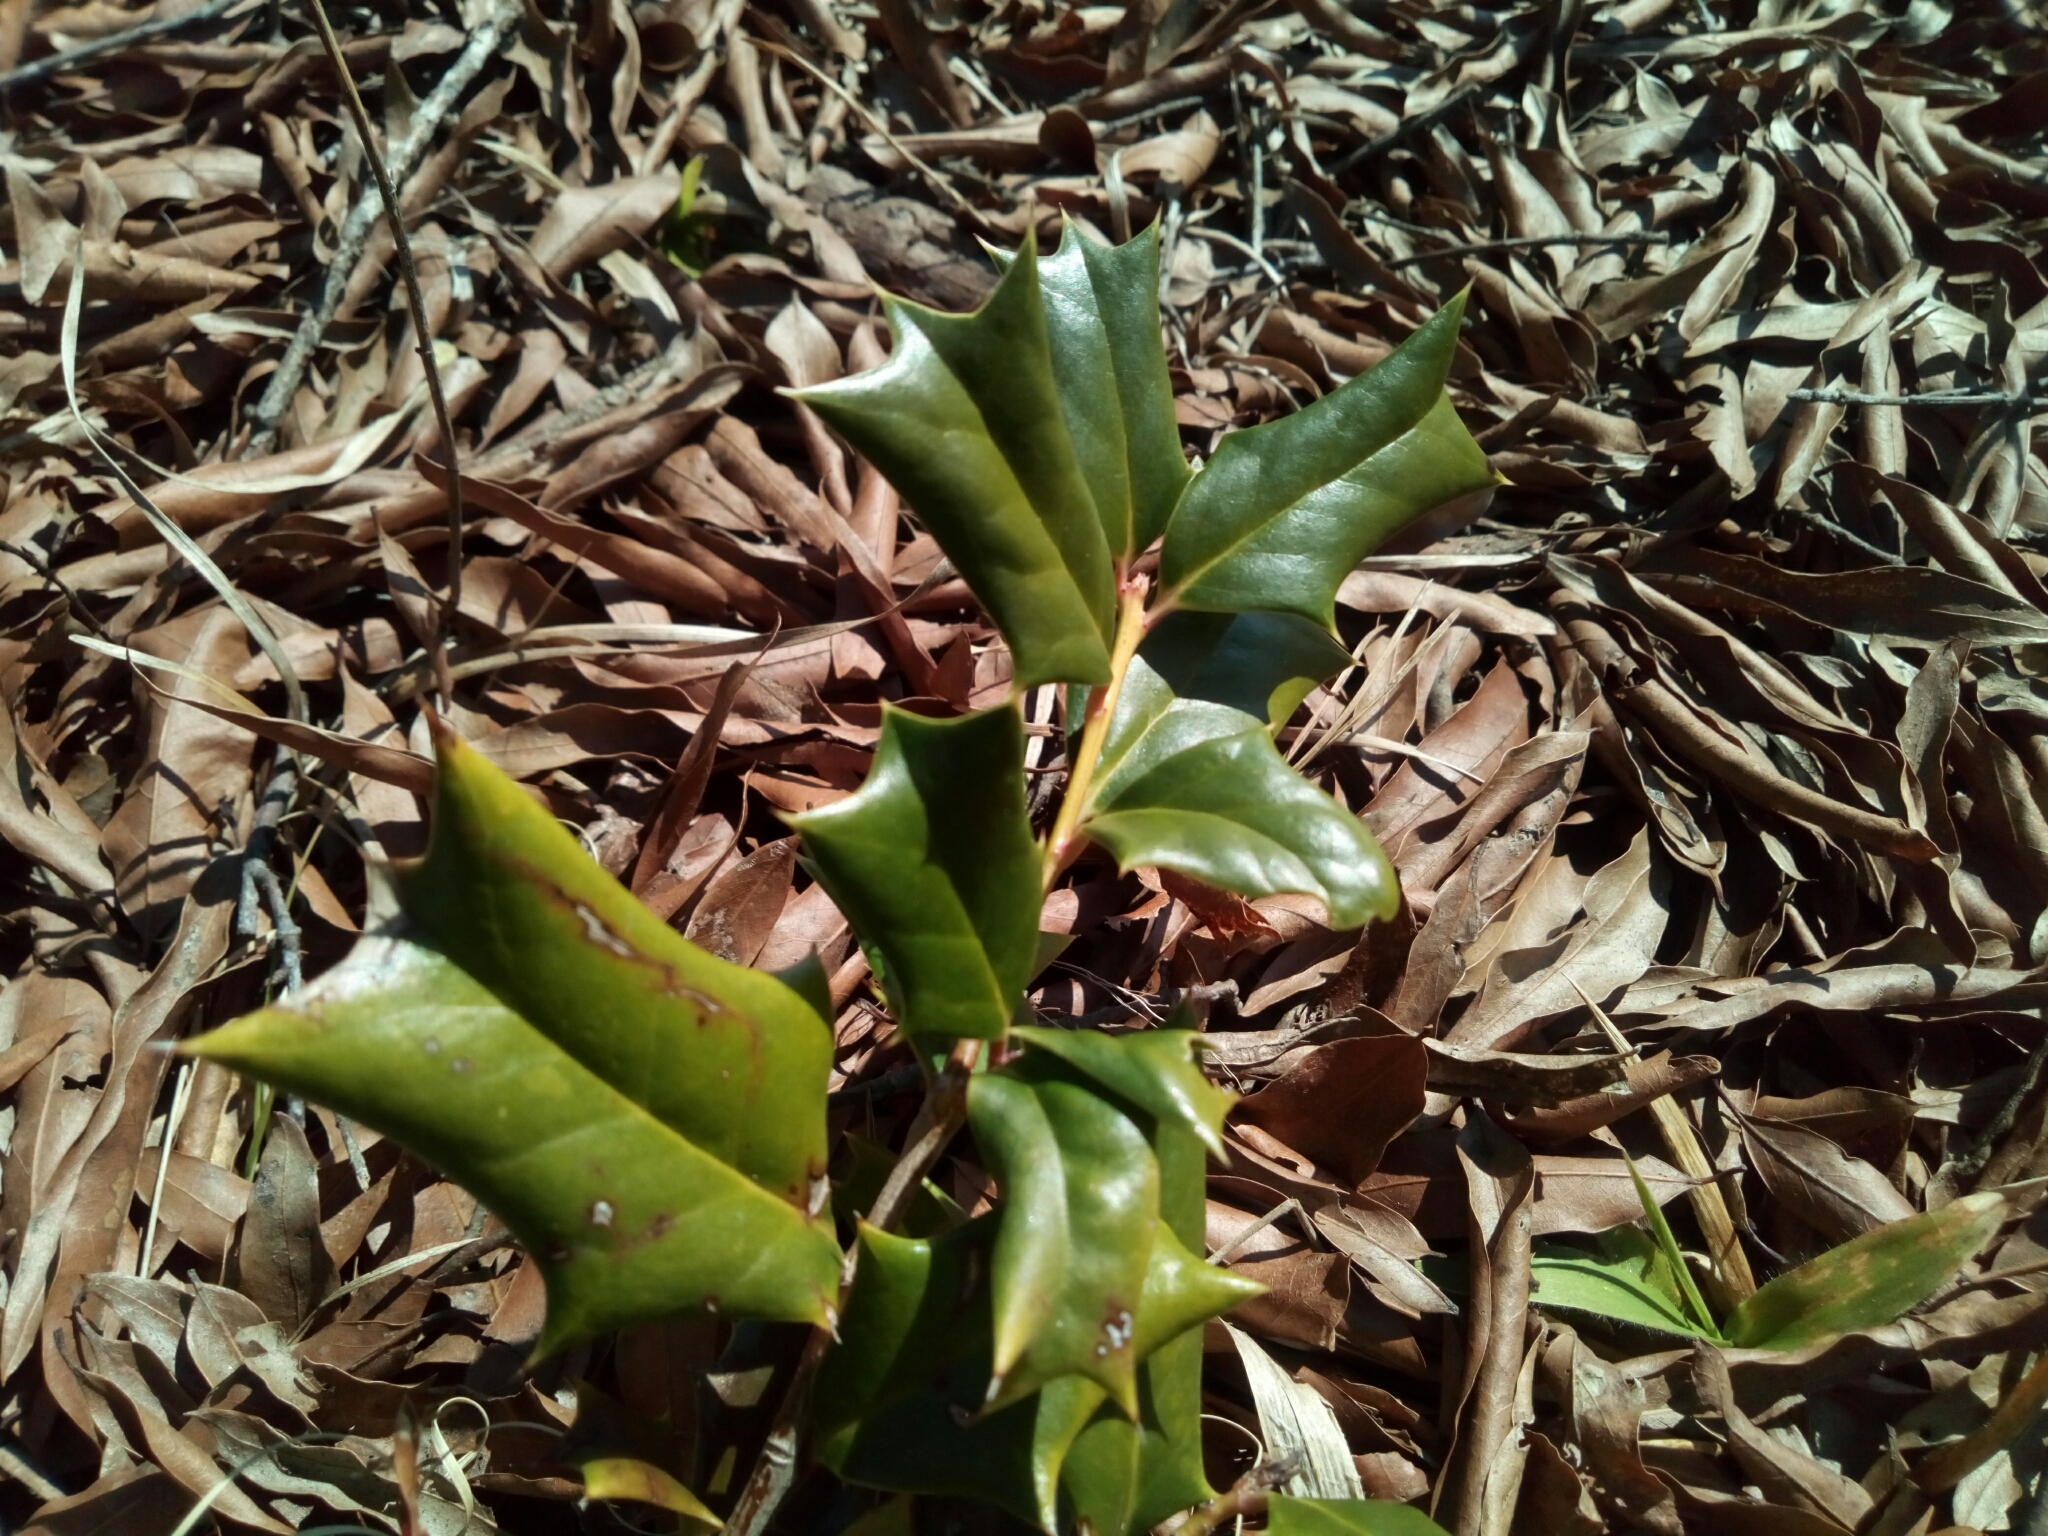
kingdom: Plantae
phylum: Tracheophyta
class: Magnoliopsida
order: Aquifoliales
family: Aquifoliaceae
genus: Ilex
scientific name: Ilex cornuta
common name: Chinese holly
